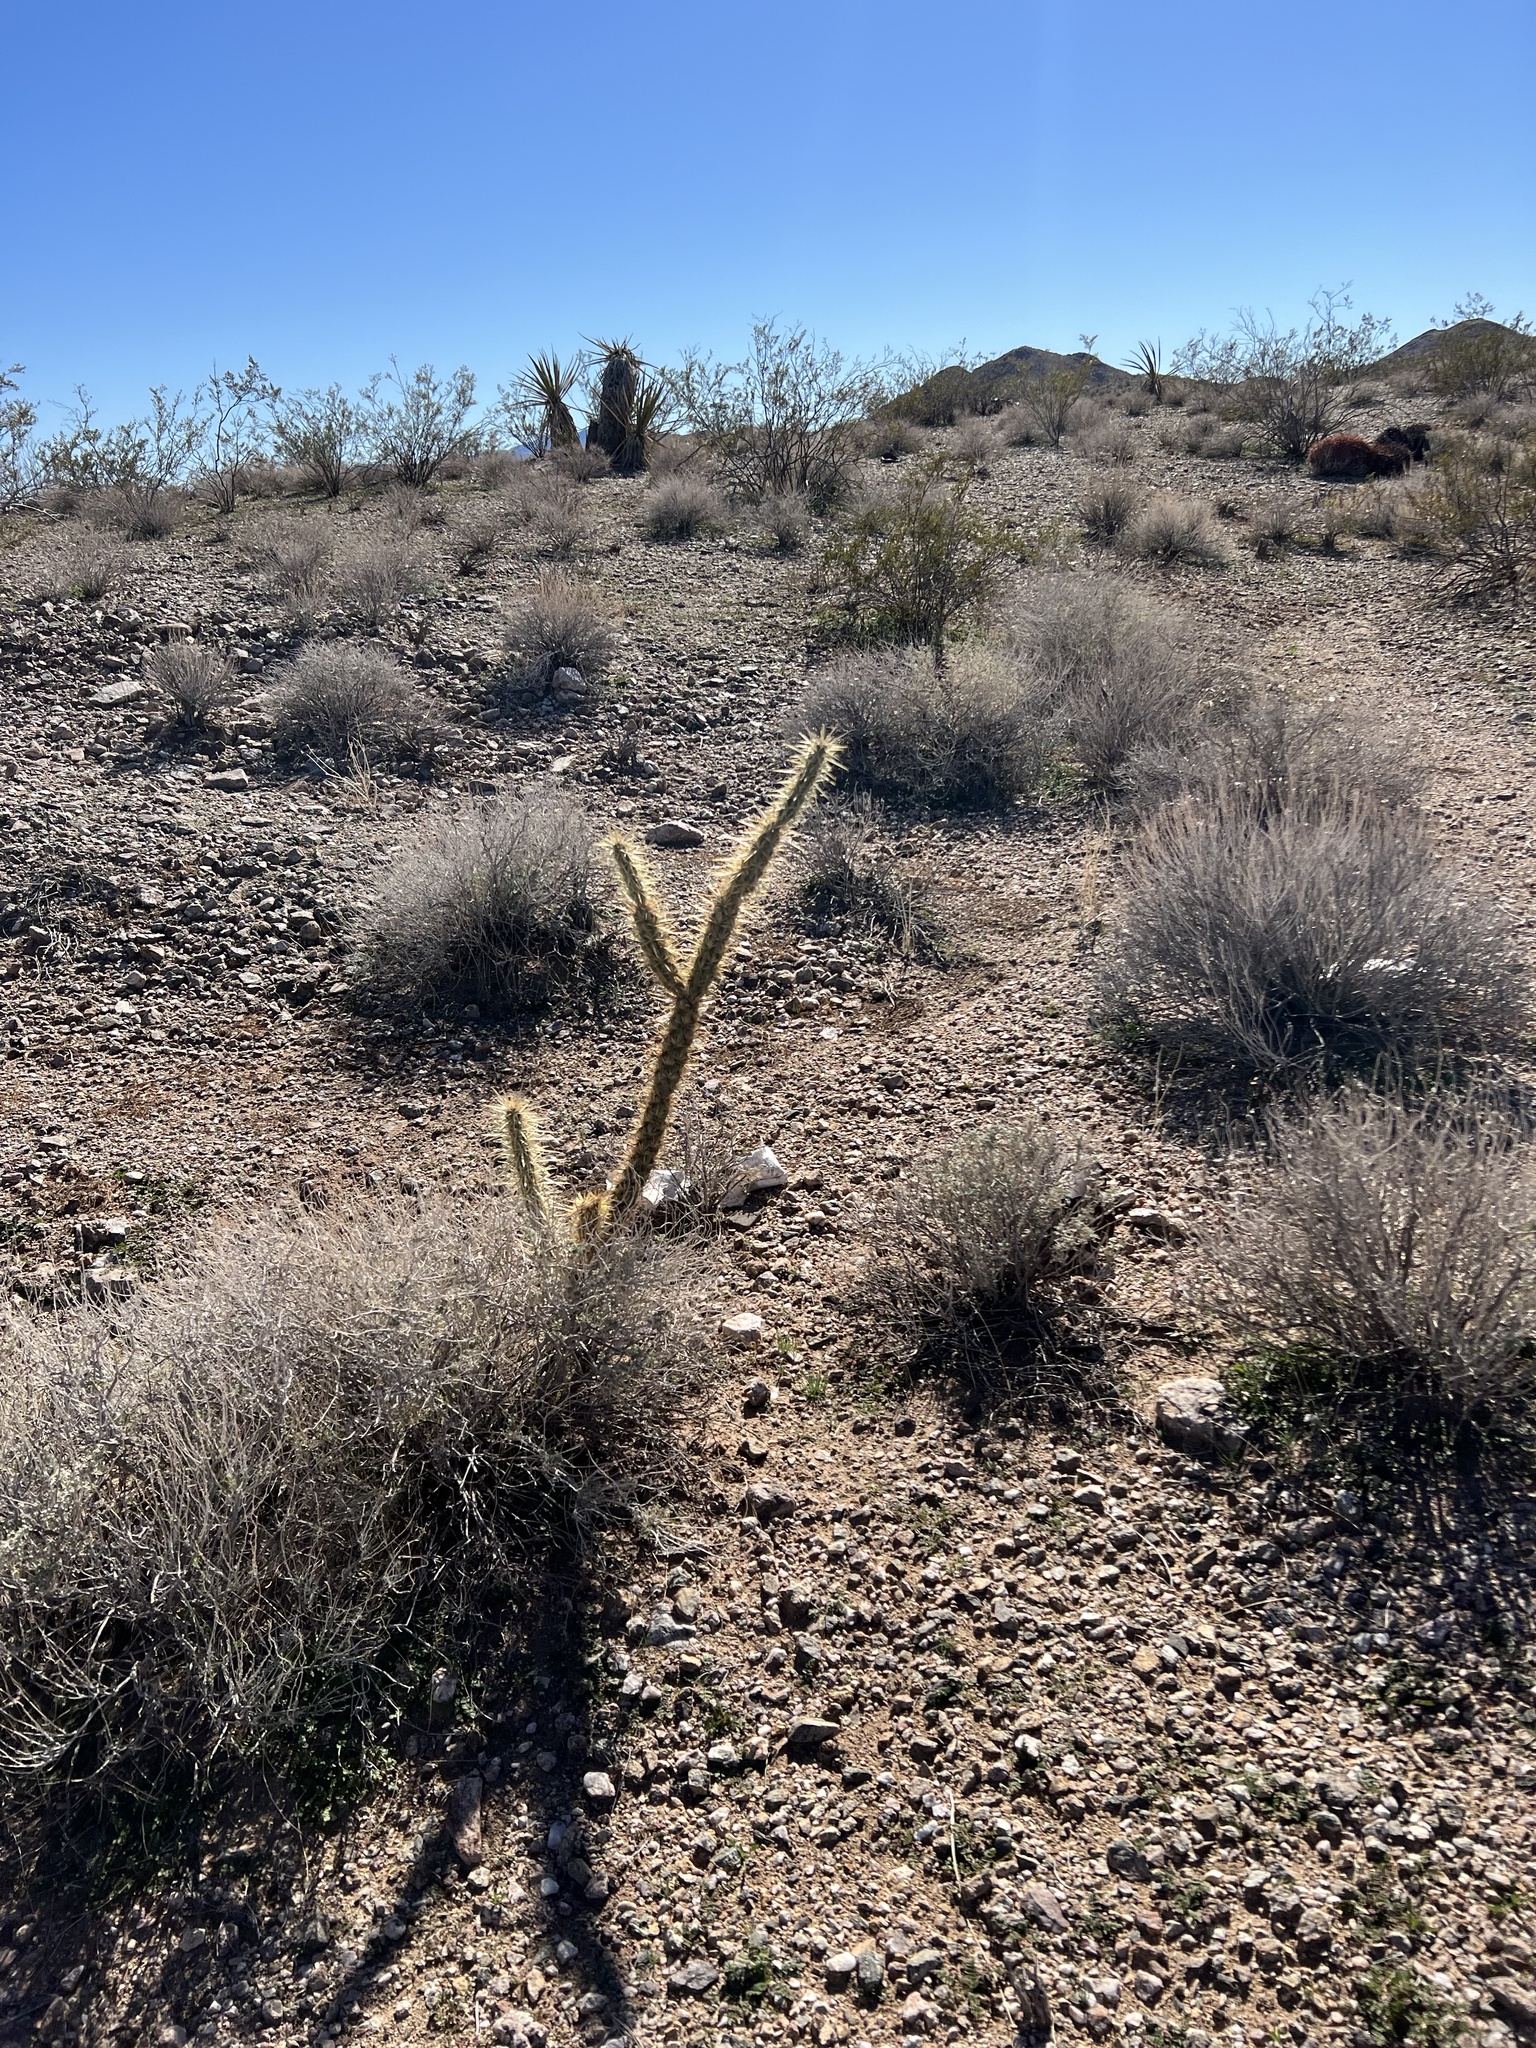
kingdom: Plantae
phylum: Tracheophyta
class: Magnoliopsida
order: Caryophyllales
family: Cactaceae
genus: Cylindropuntia
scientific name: Cylindropuntia acanthocarpa
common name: Buckhorn cholla
